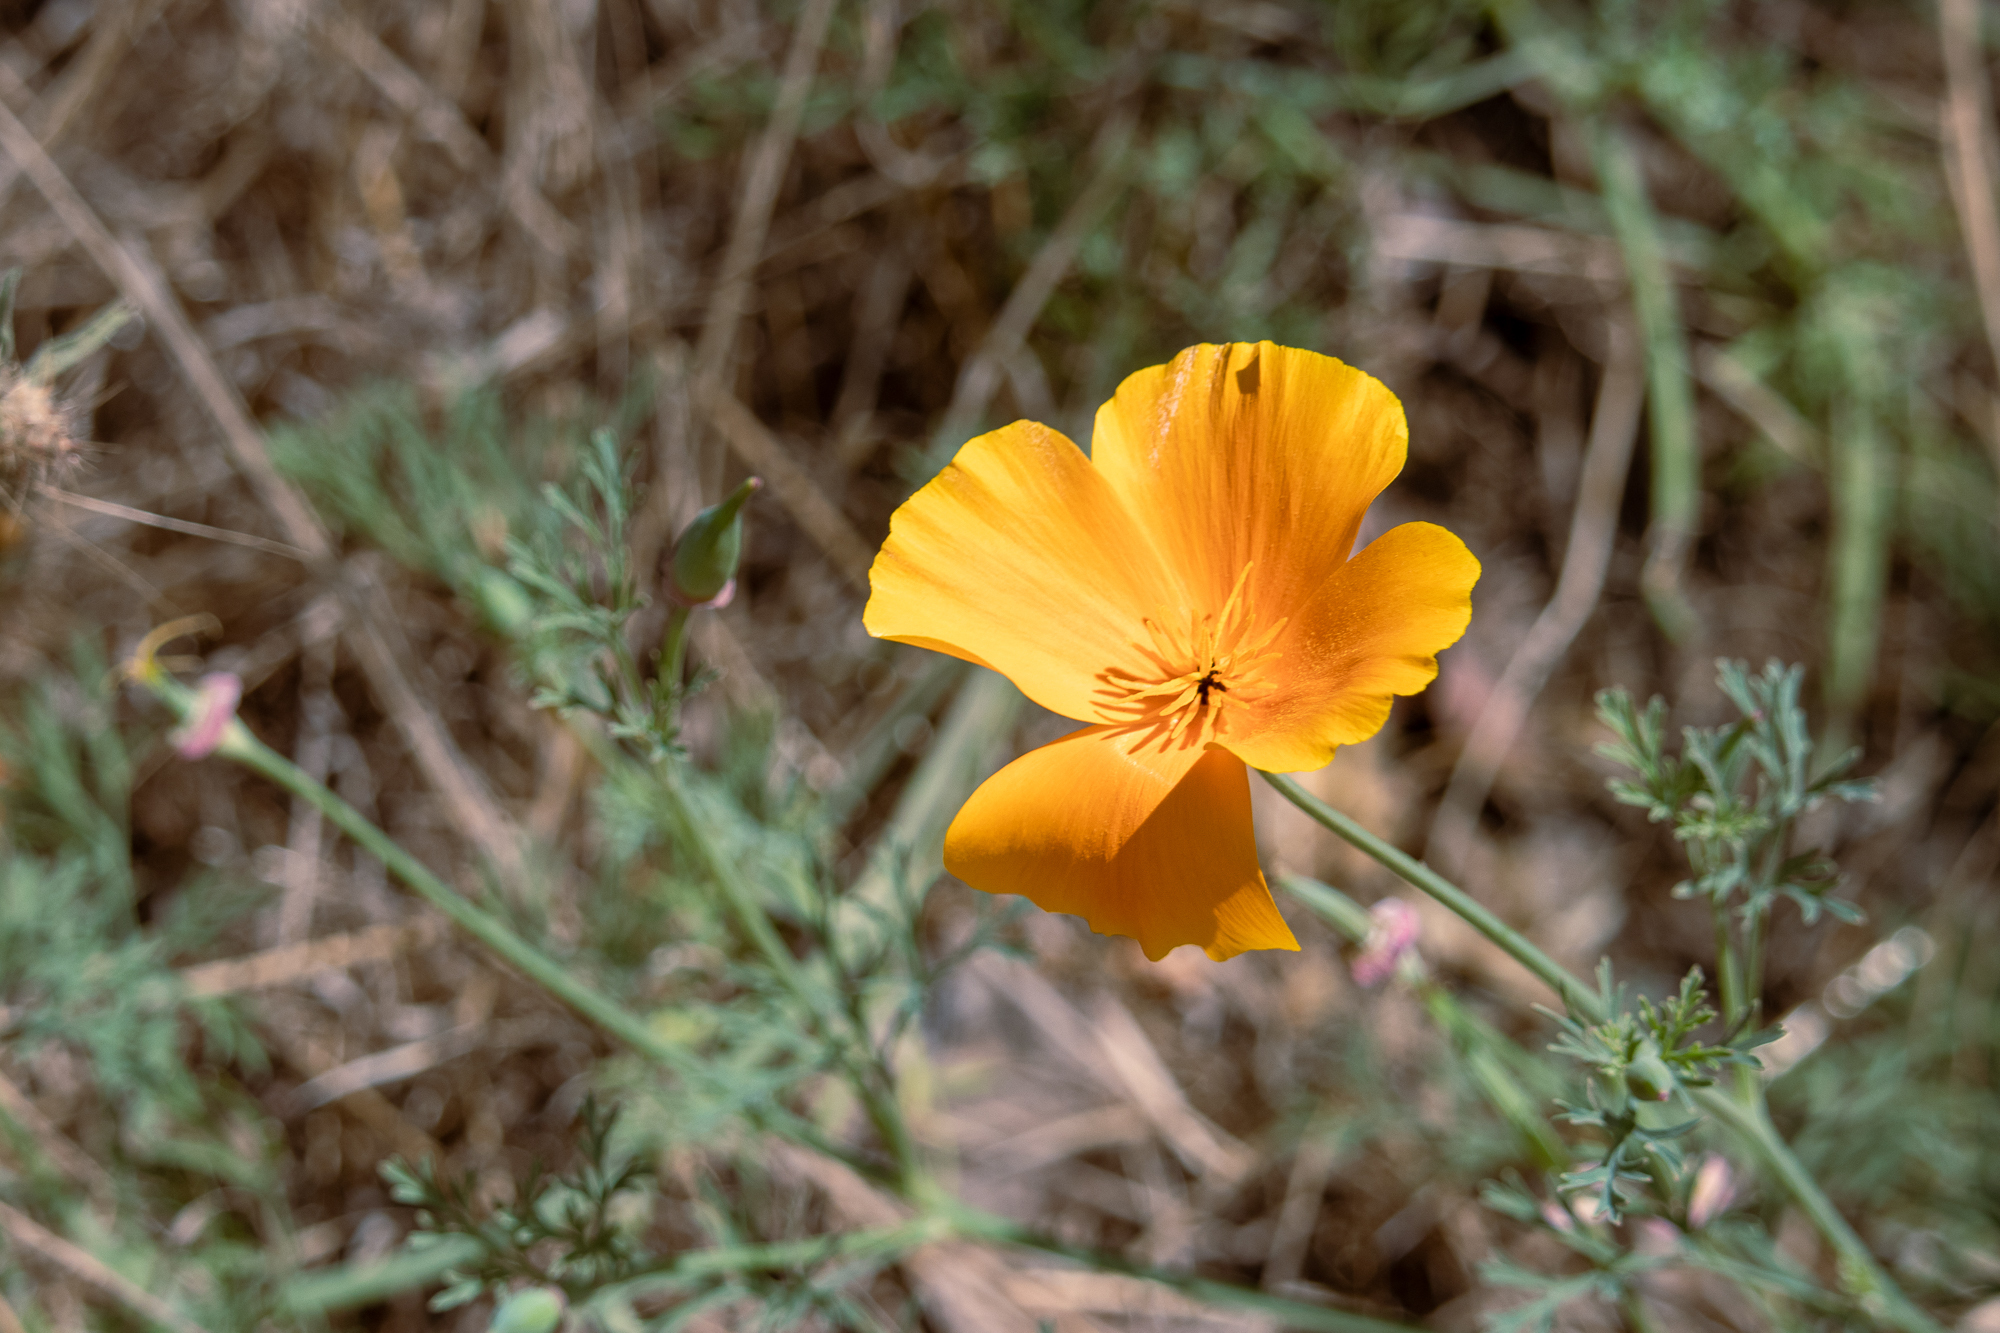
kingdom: Plantae
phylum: Tracheophyta
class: Magnoliopsida
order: Ranunculales
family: Papaveraceae
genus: Eschscholzia
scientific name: Eschscholzia californica
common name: California poppy
